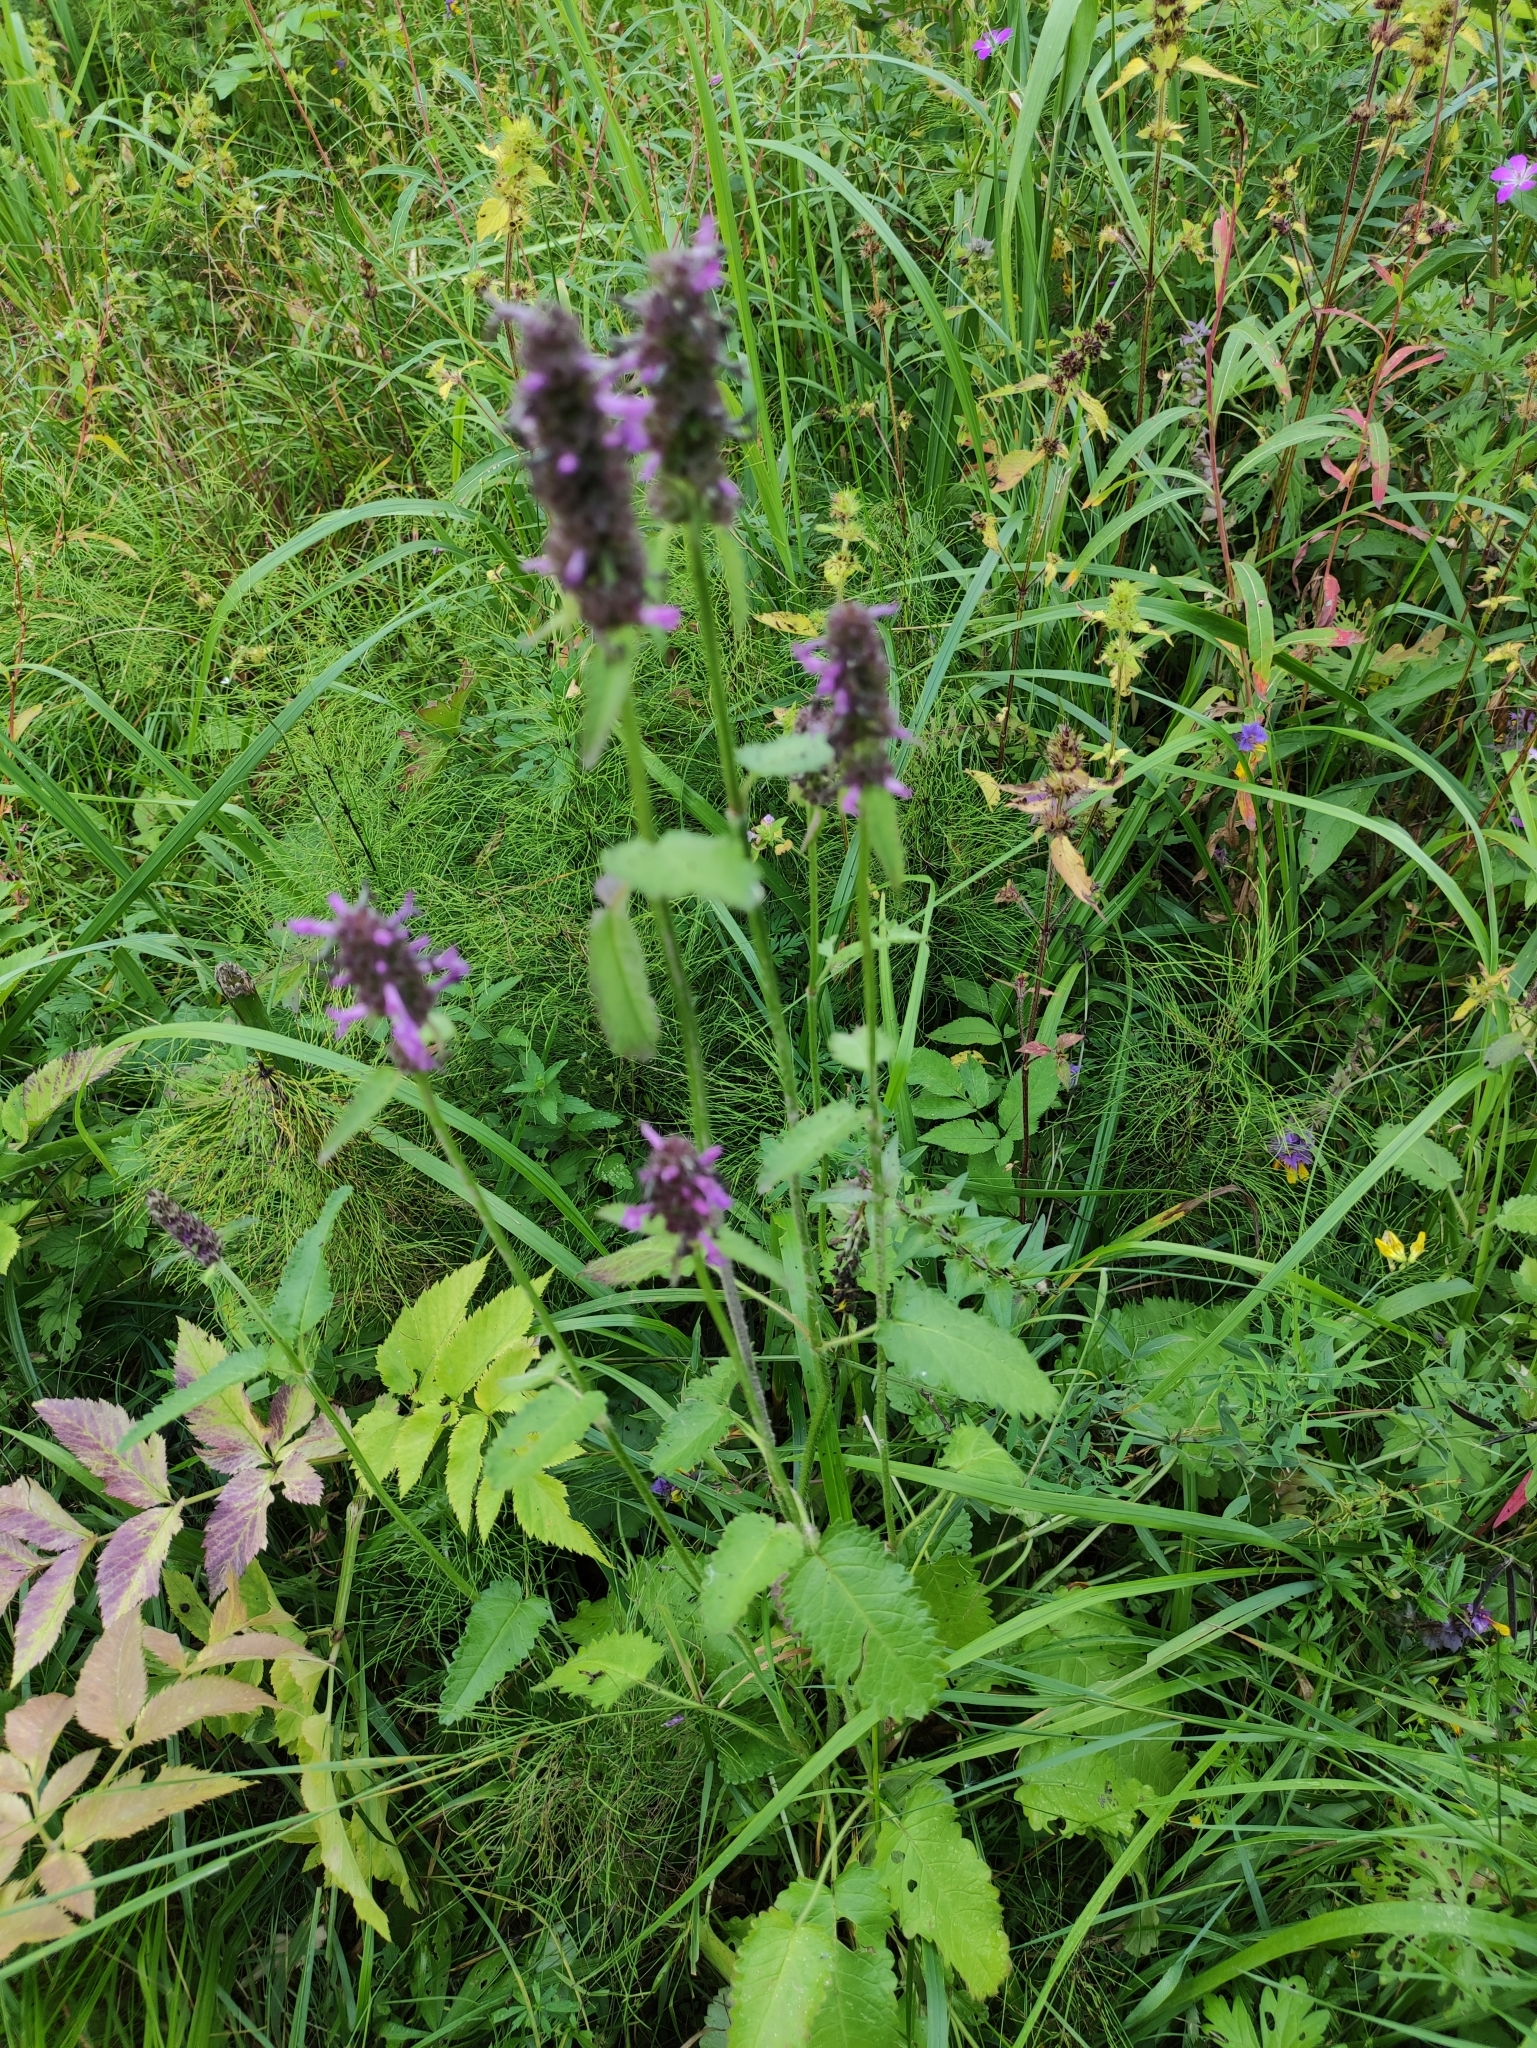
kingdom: Plantae
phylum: Tracheophyta
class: Magnoliopsida
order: Lamiales
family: Lamiaceae
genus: Betonica
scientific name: Betonica officinalis
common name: Bishop's-wort
